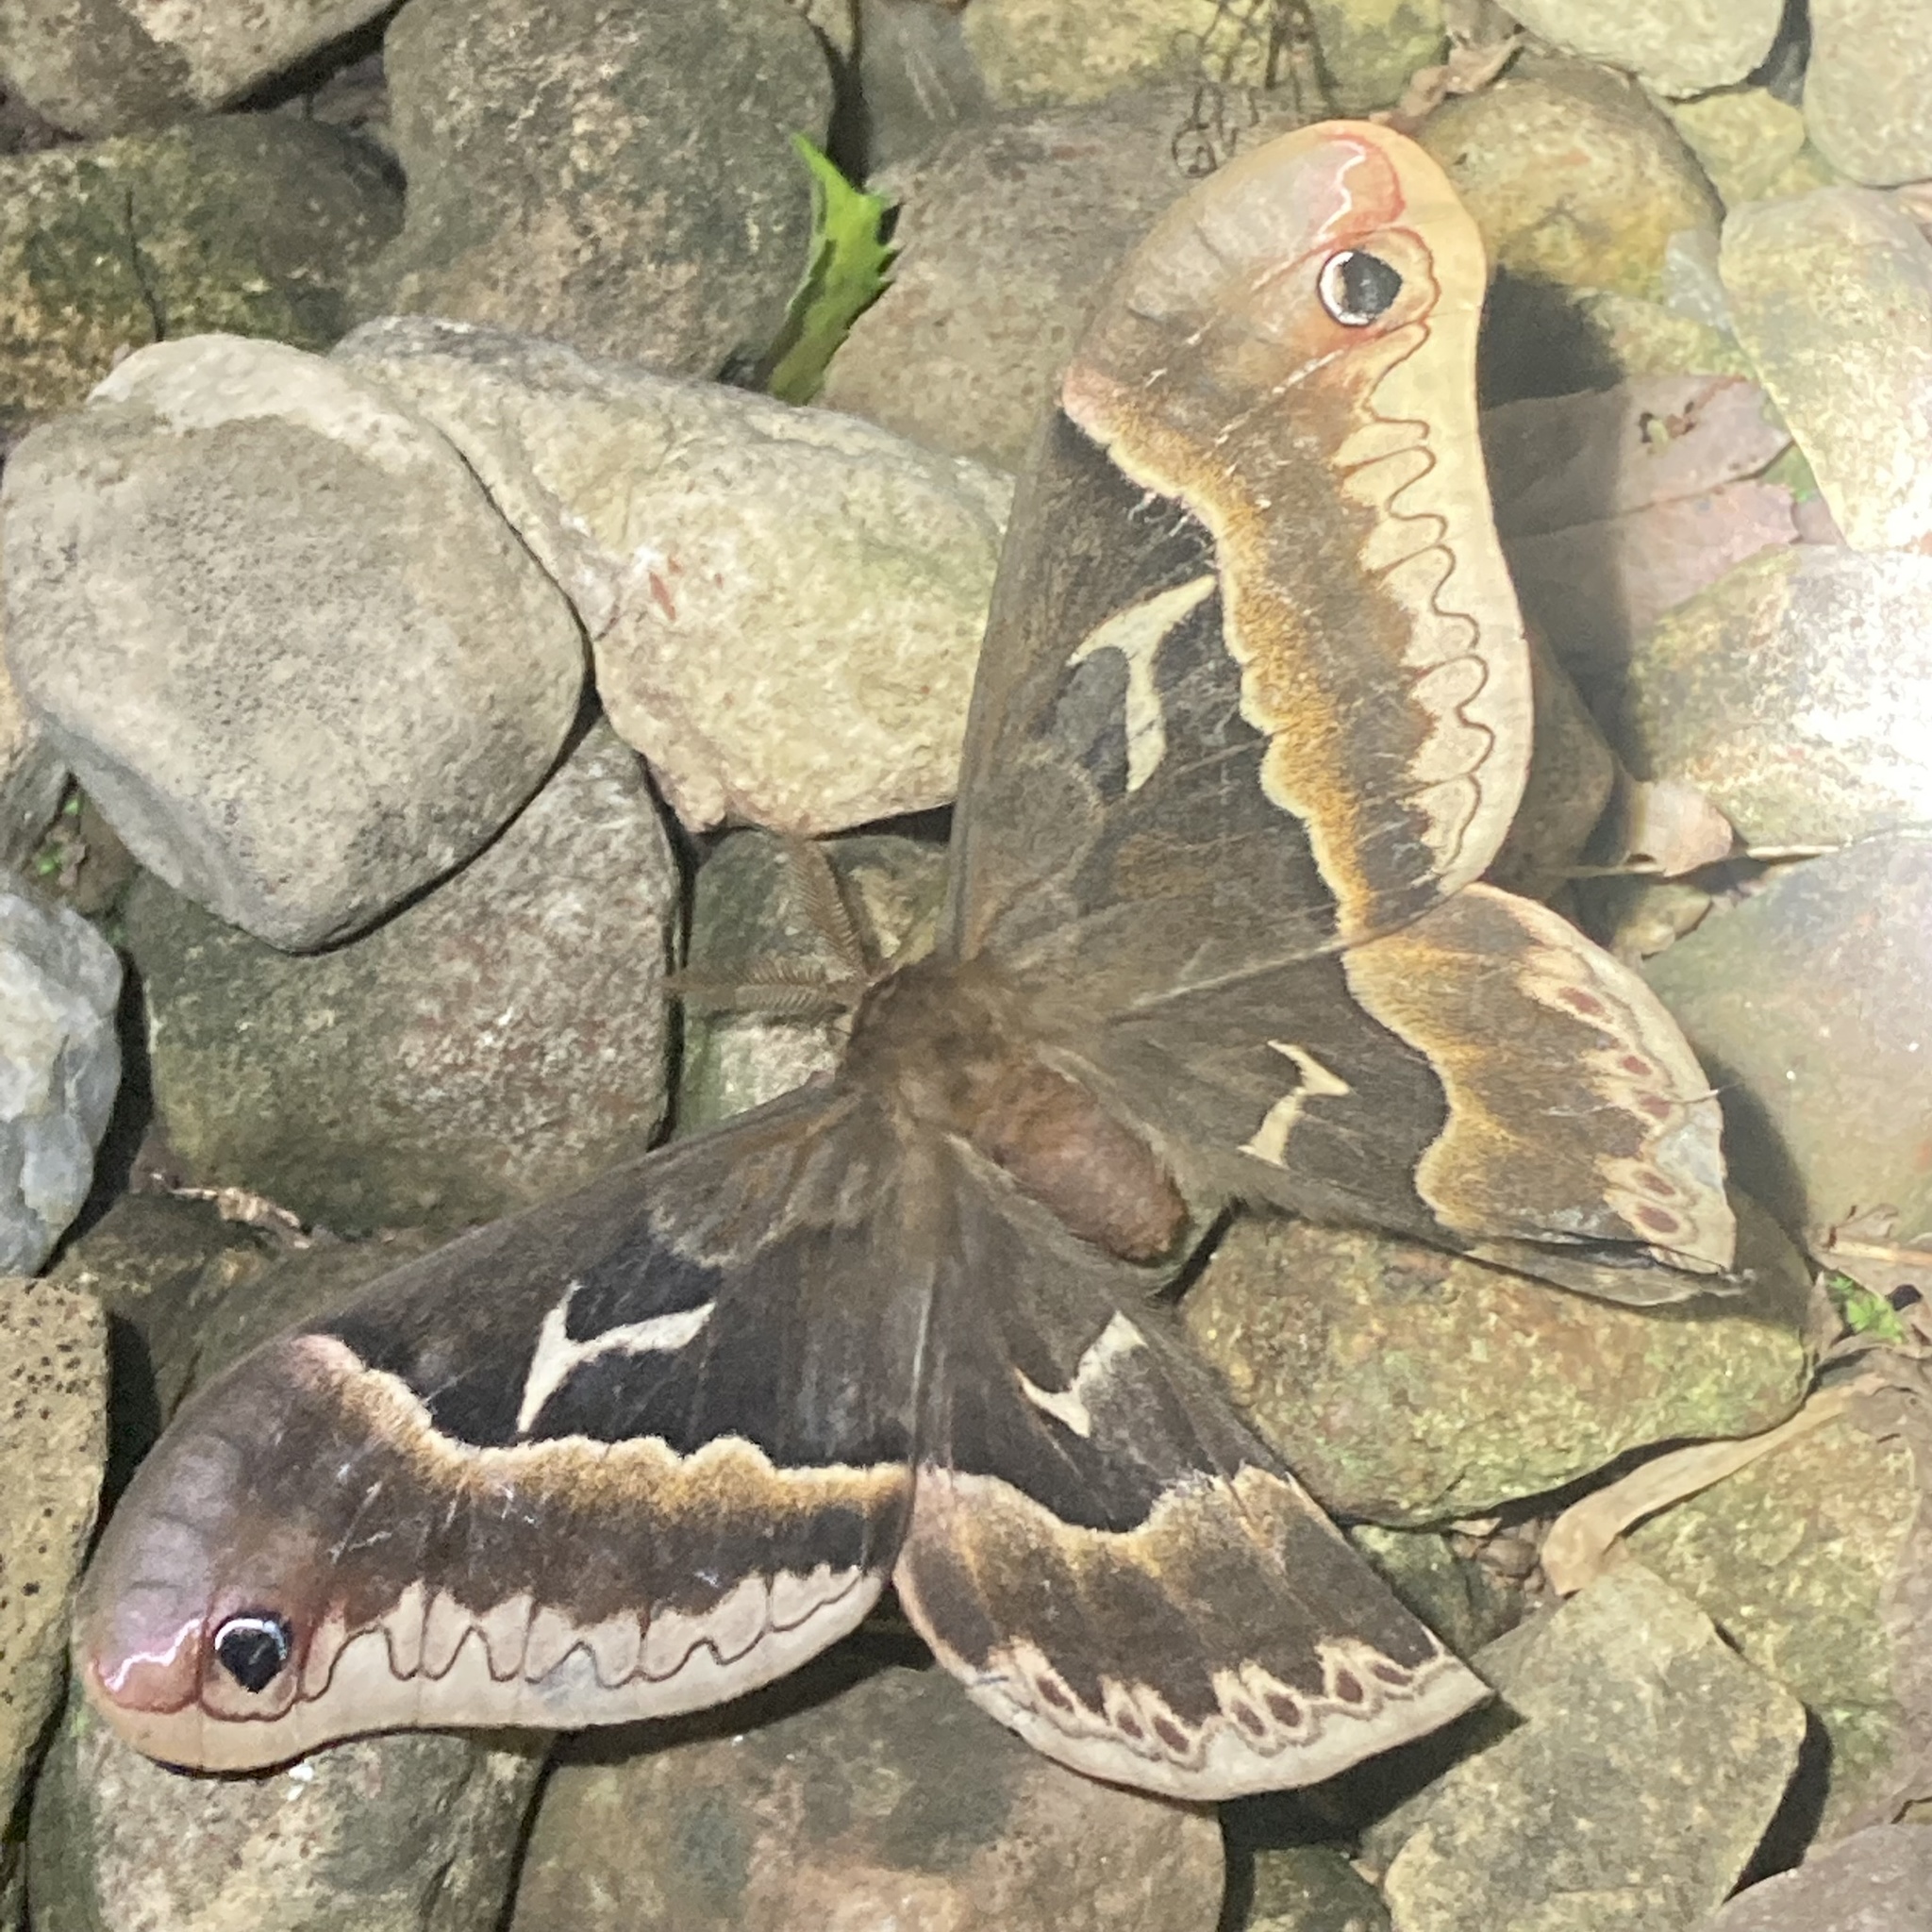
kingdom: Animalia
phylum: Arthropoda
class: Insecta
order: Lepidoptera
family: Saturniidae
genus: Callosamia
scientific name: Callosamia angulifera
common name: Tulip tree silkmoth
